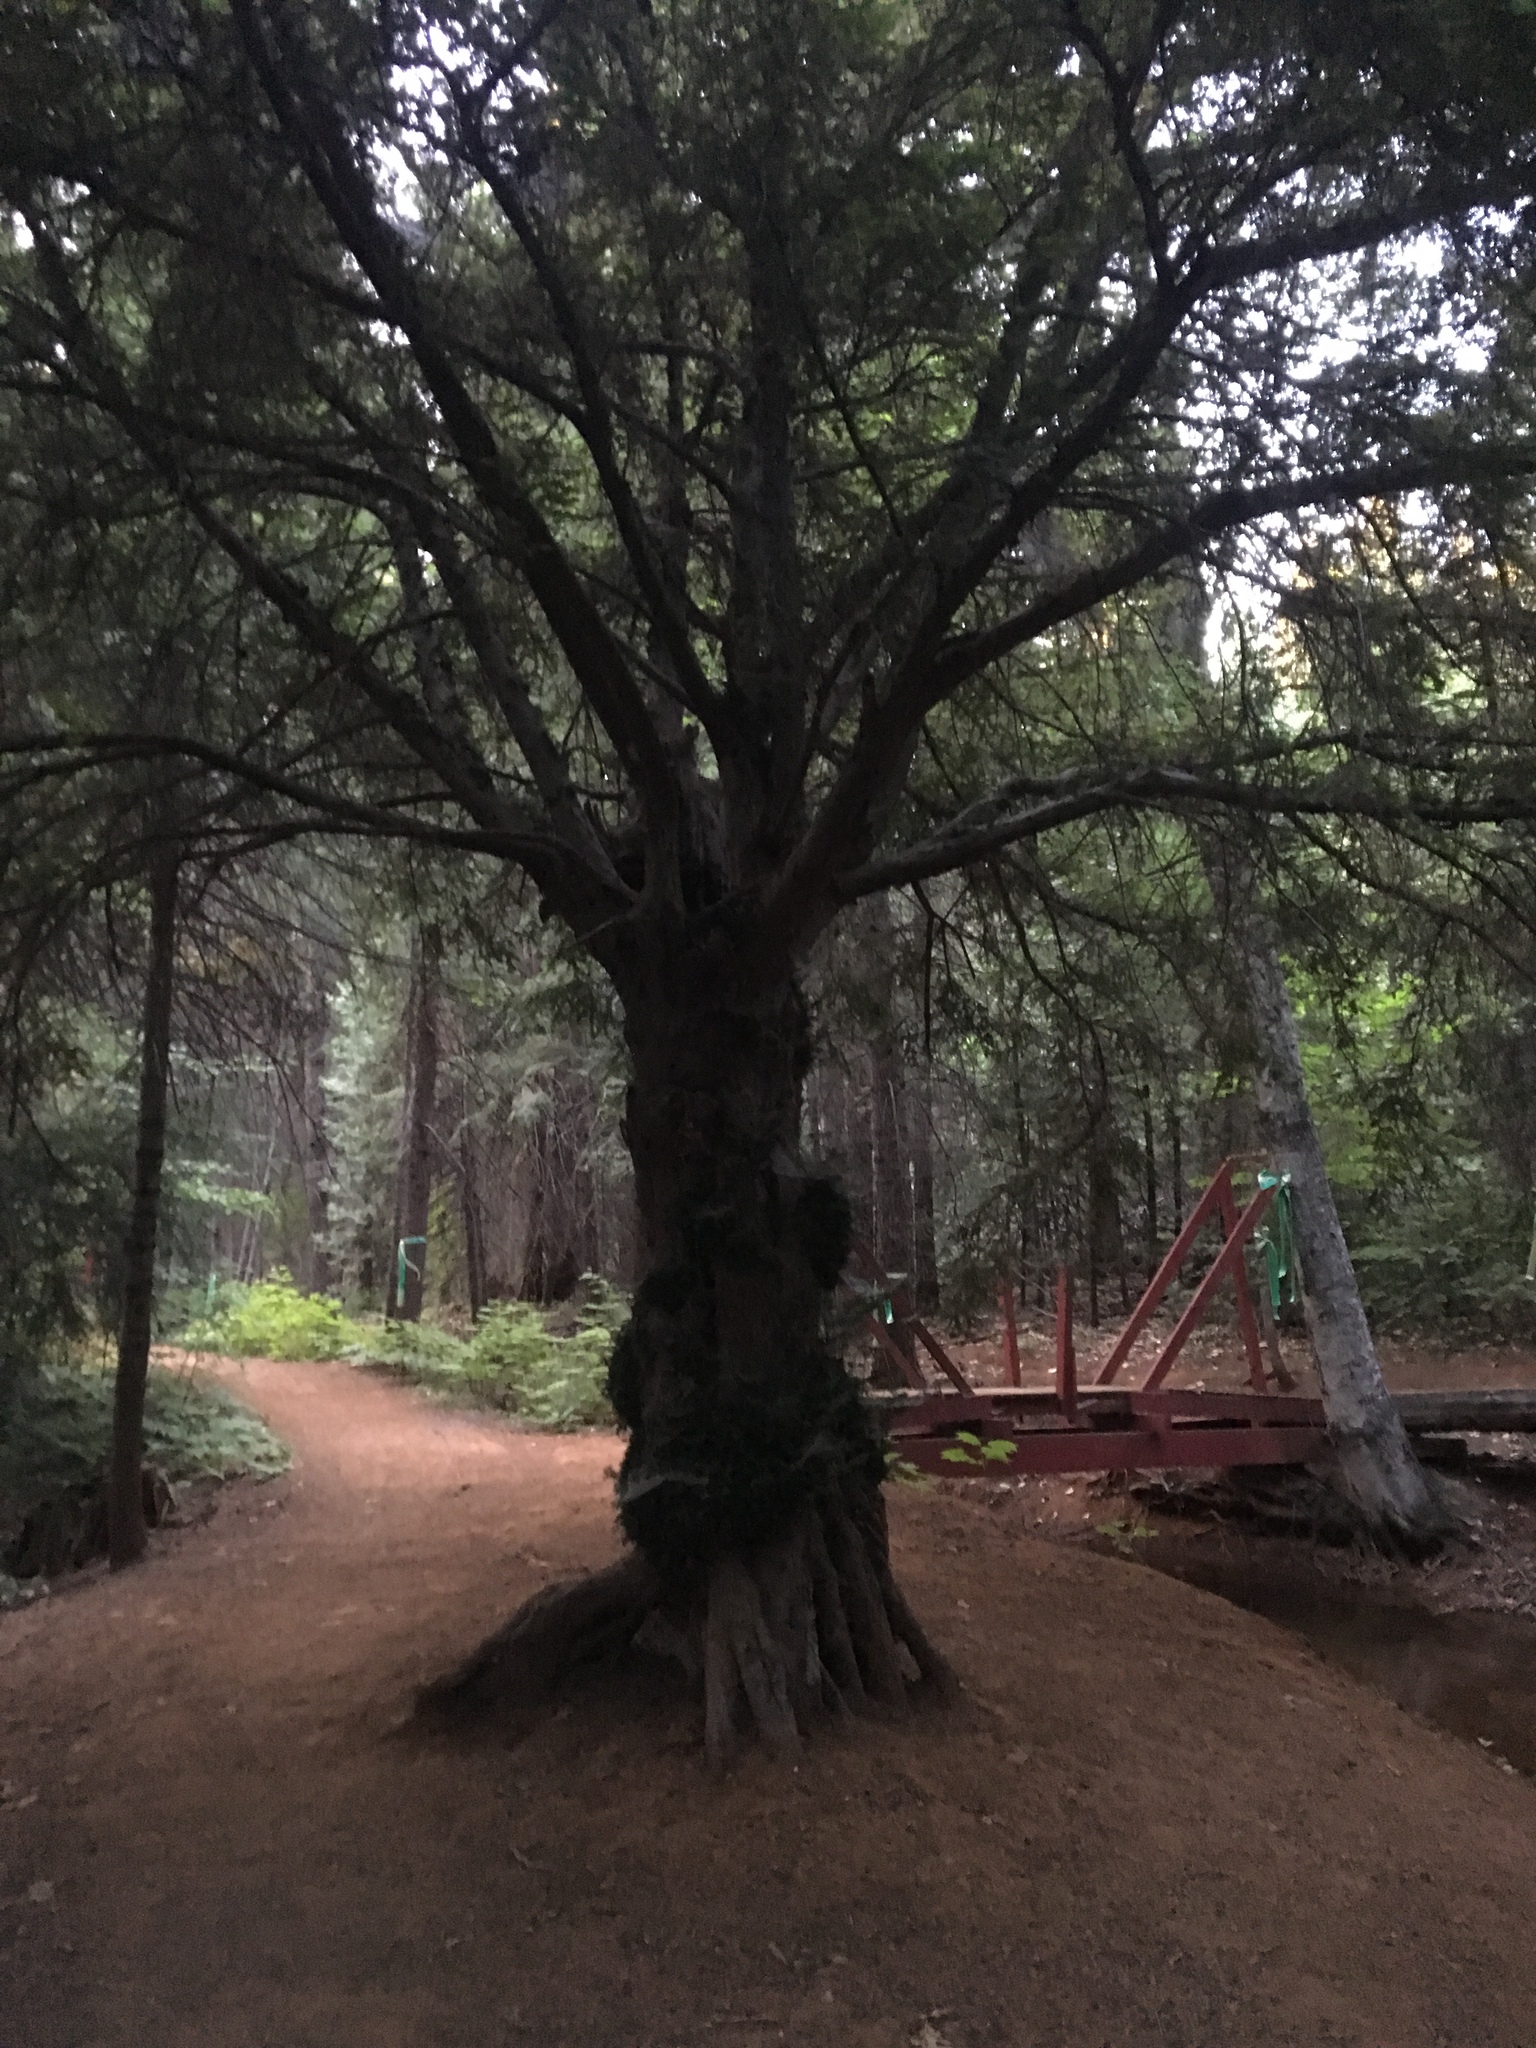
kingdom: Plantae
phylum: Tracheophyta
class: Pinopsida
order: Pinales
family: Taxaceae
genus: Torreya
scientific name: Torreya californica
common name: California torreya
